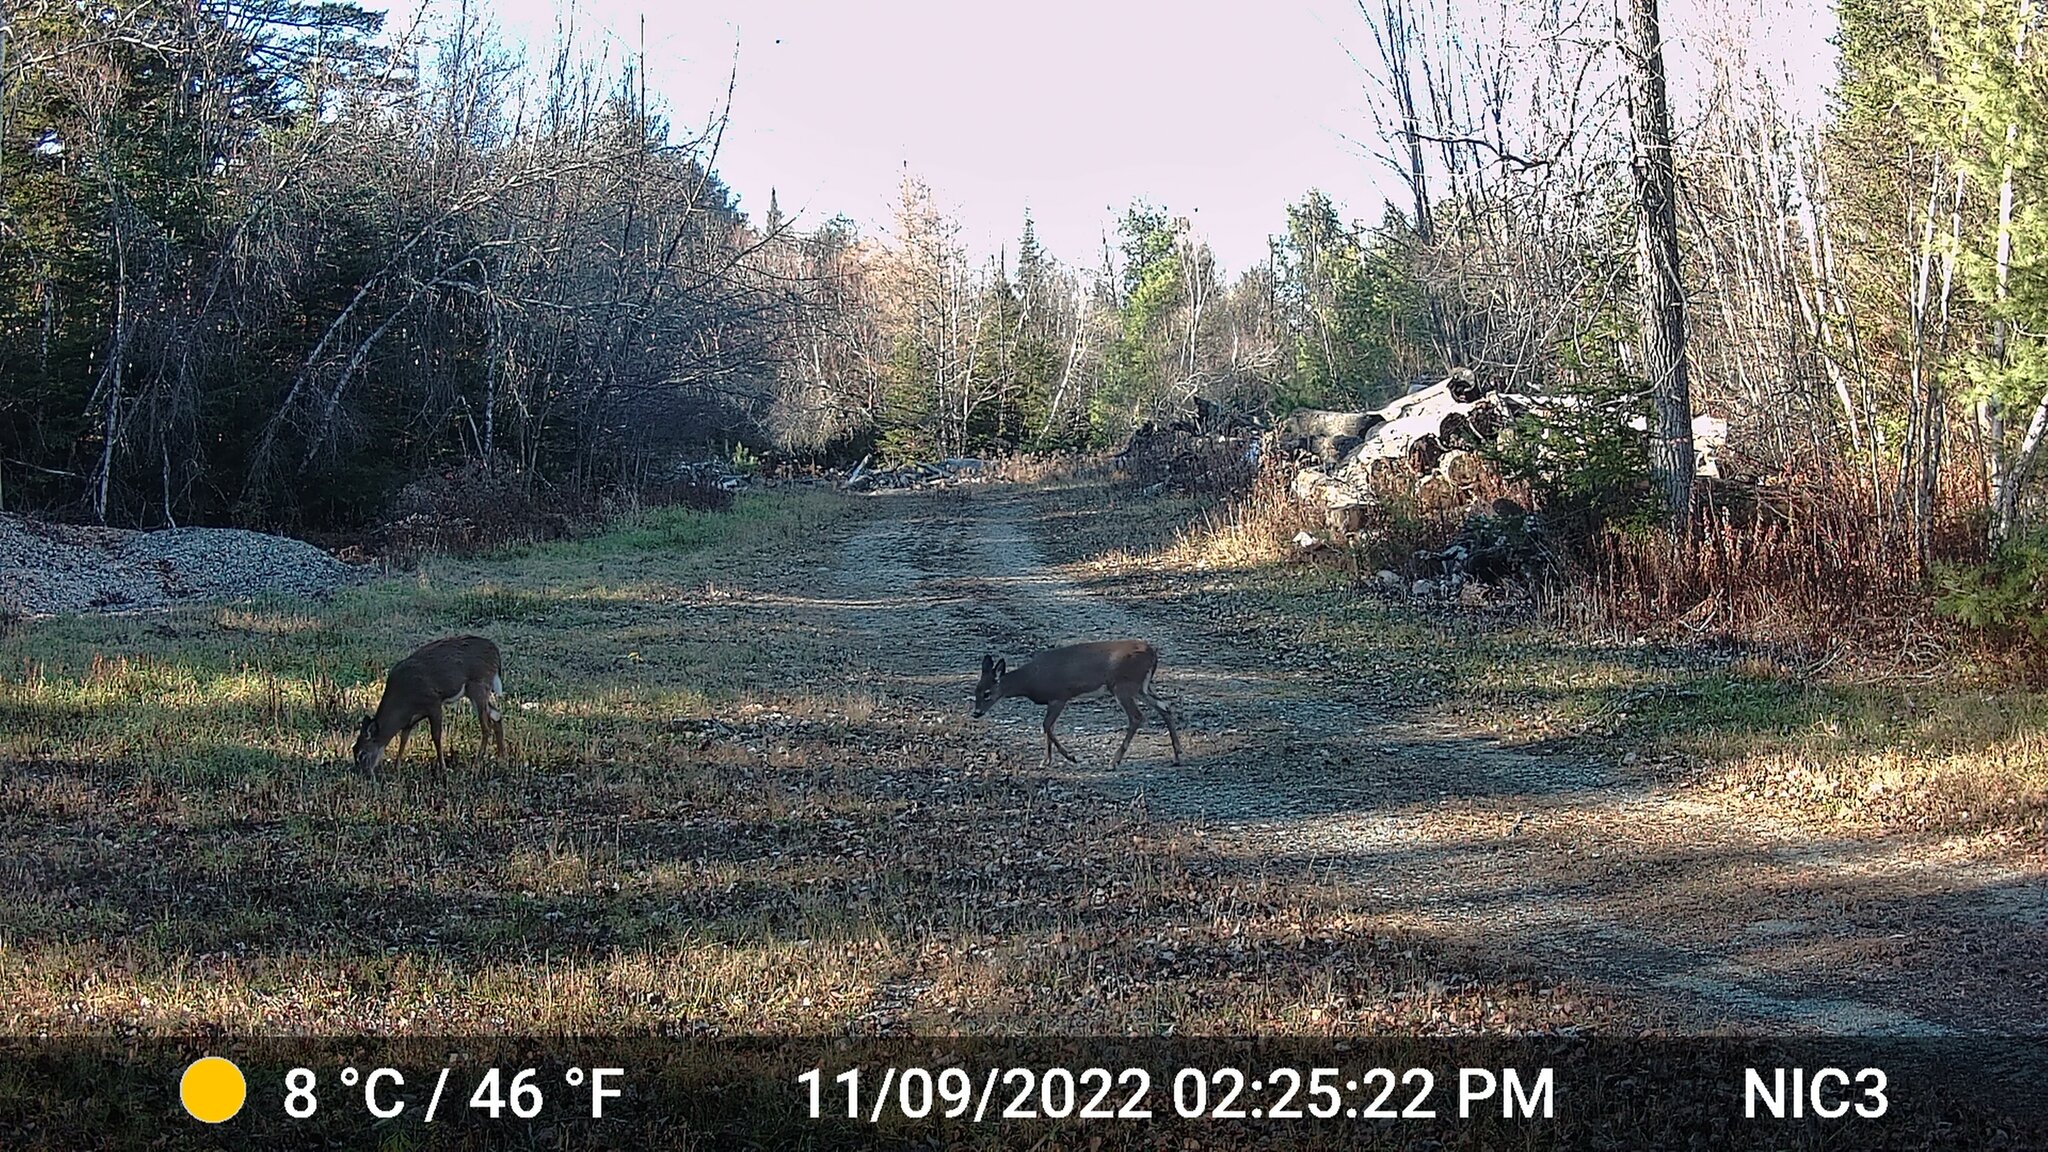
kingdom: Animalia
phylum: Chordata
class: Mammalia
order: Artiodactyla
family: Cervidae
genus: Odocoileus
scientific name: Odocoileus virginianus
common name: White-tailed deer
